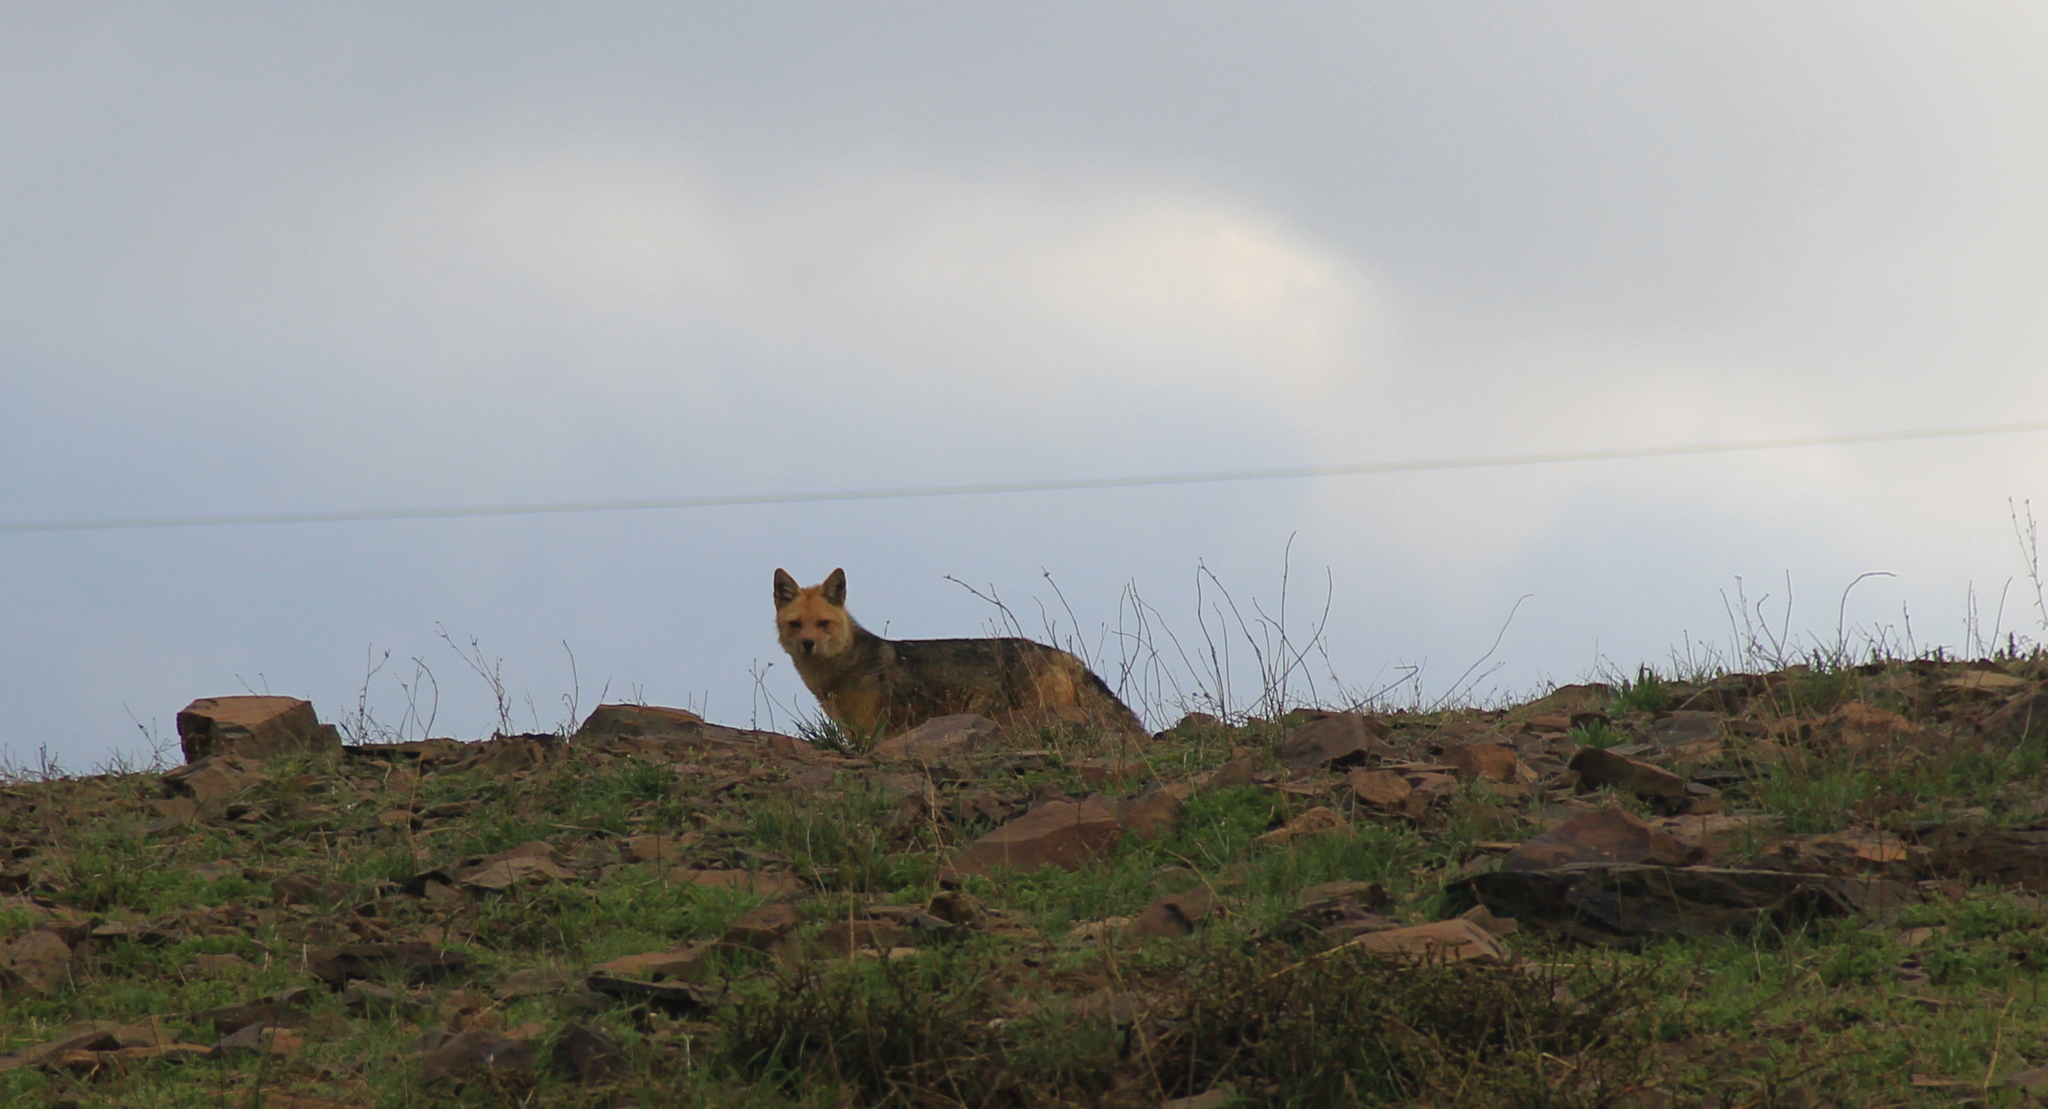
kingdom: Animalia
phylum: Chordata
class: Mammalia
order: Carnivora
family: Canidae
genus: Lycalopex
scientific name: Lycalopex culpaeus
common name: Culpeo
